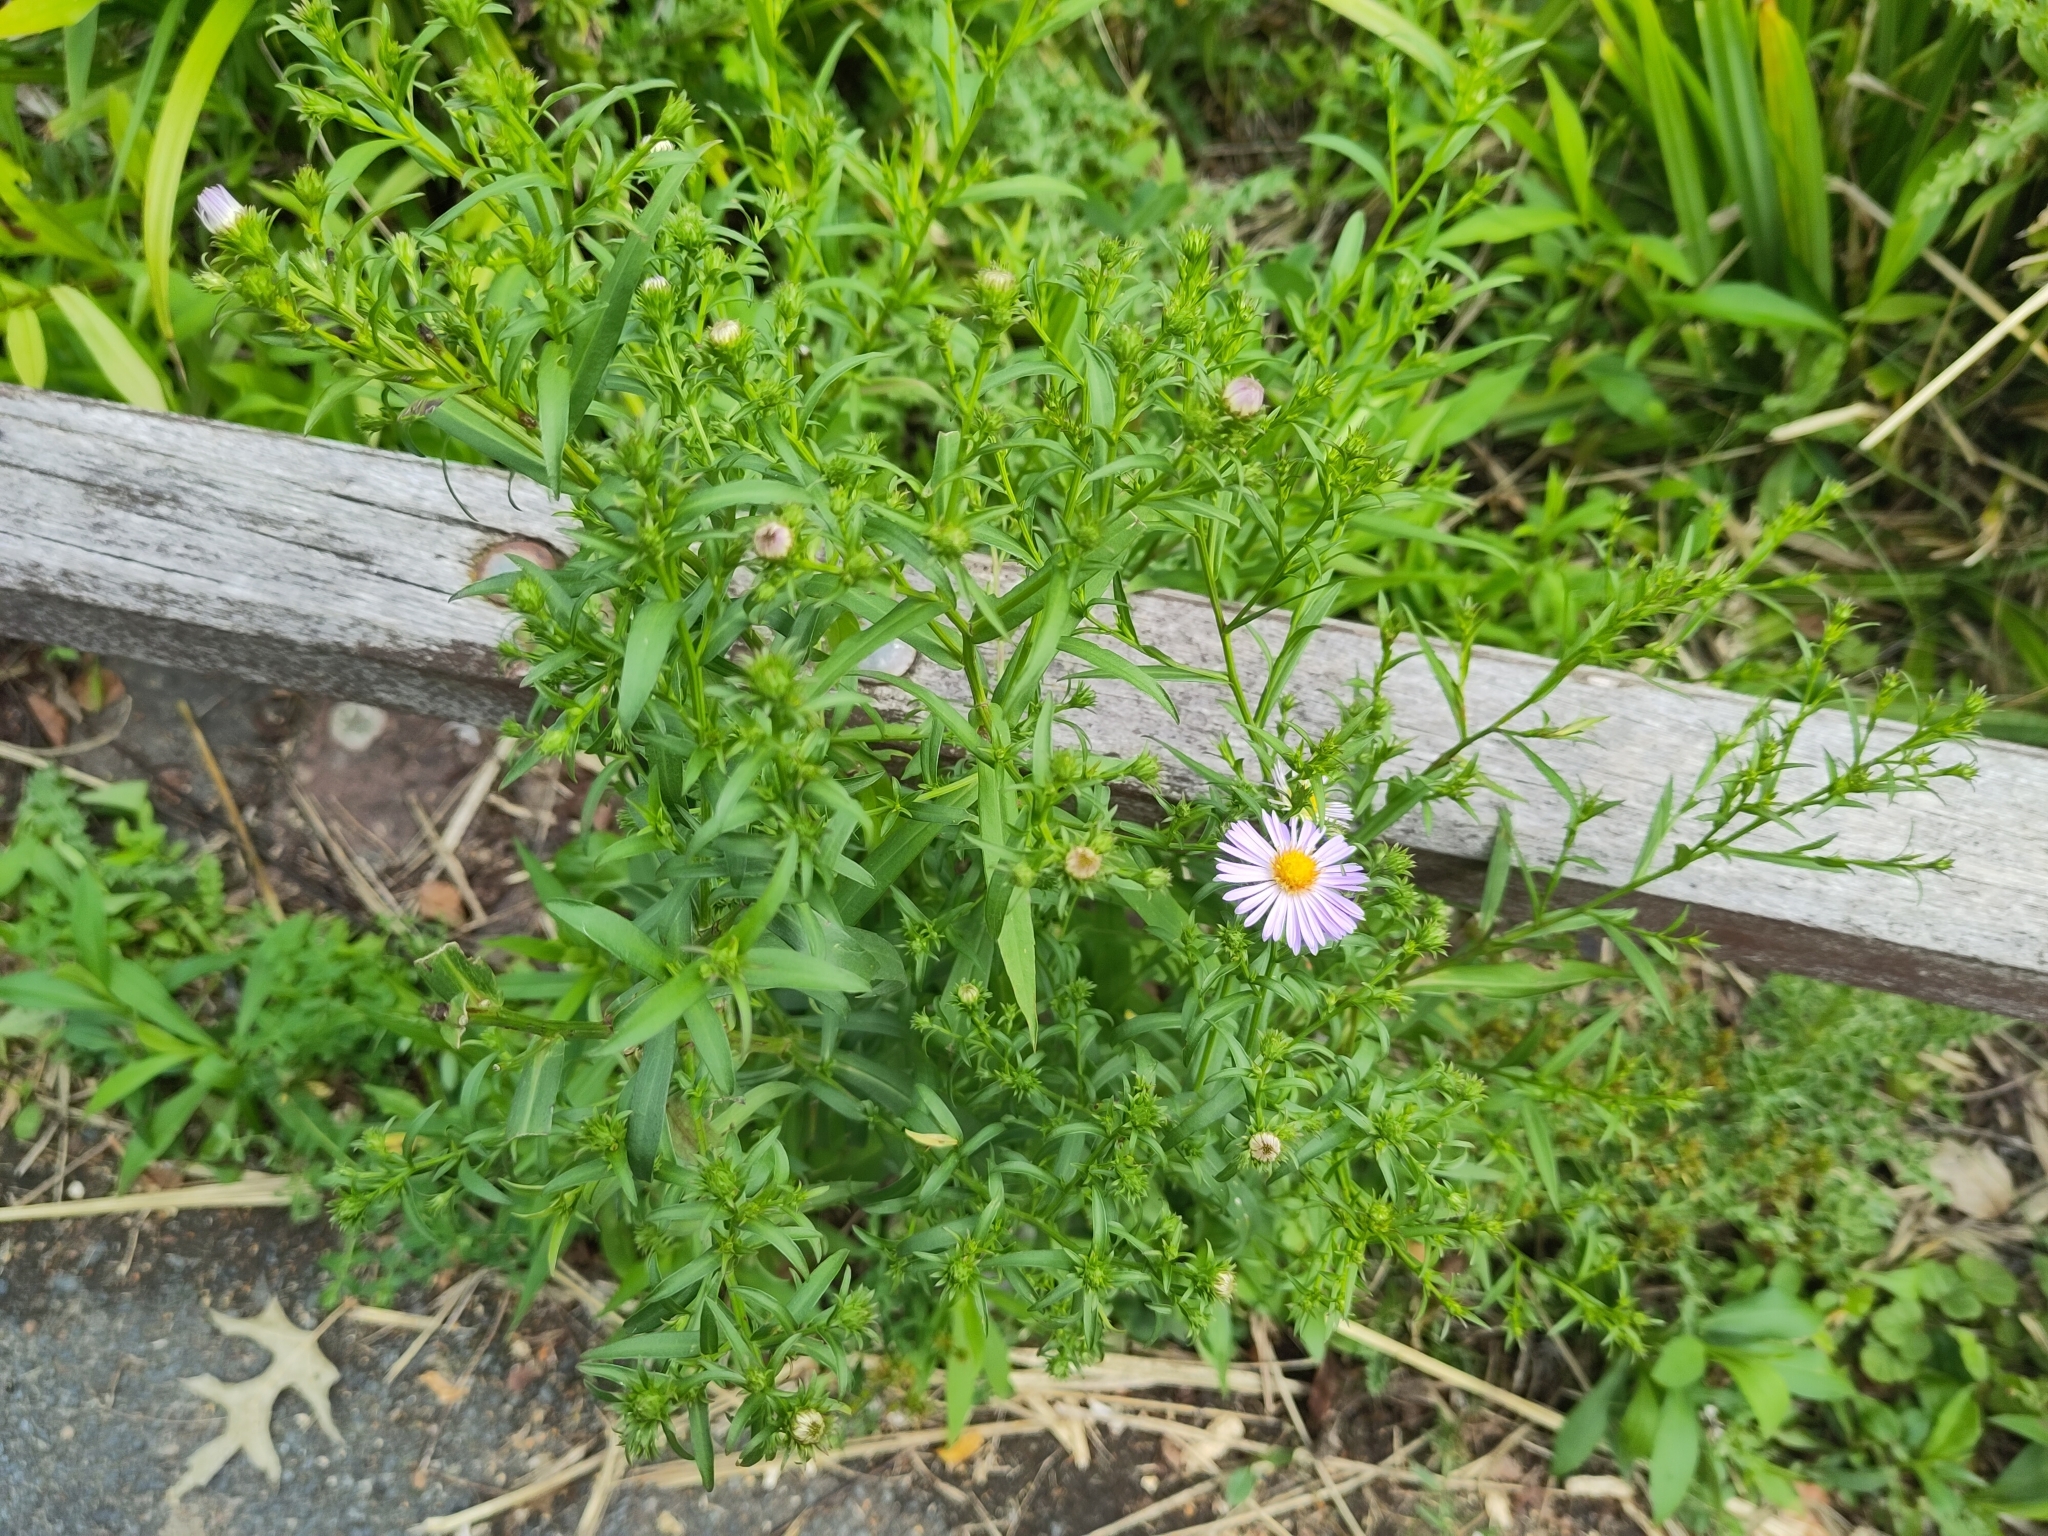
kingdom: Plantae
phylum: Tracheophyta
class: Magnoliopsida
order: Asterales
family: Asteraceae
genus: Symphyotrichum
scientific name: Symphyotrichum novi-belgii
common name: Michaelmas daisy
